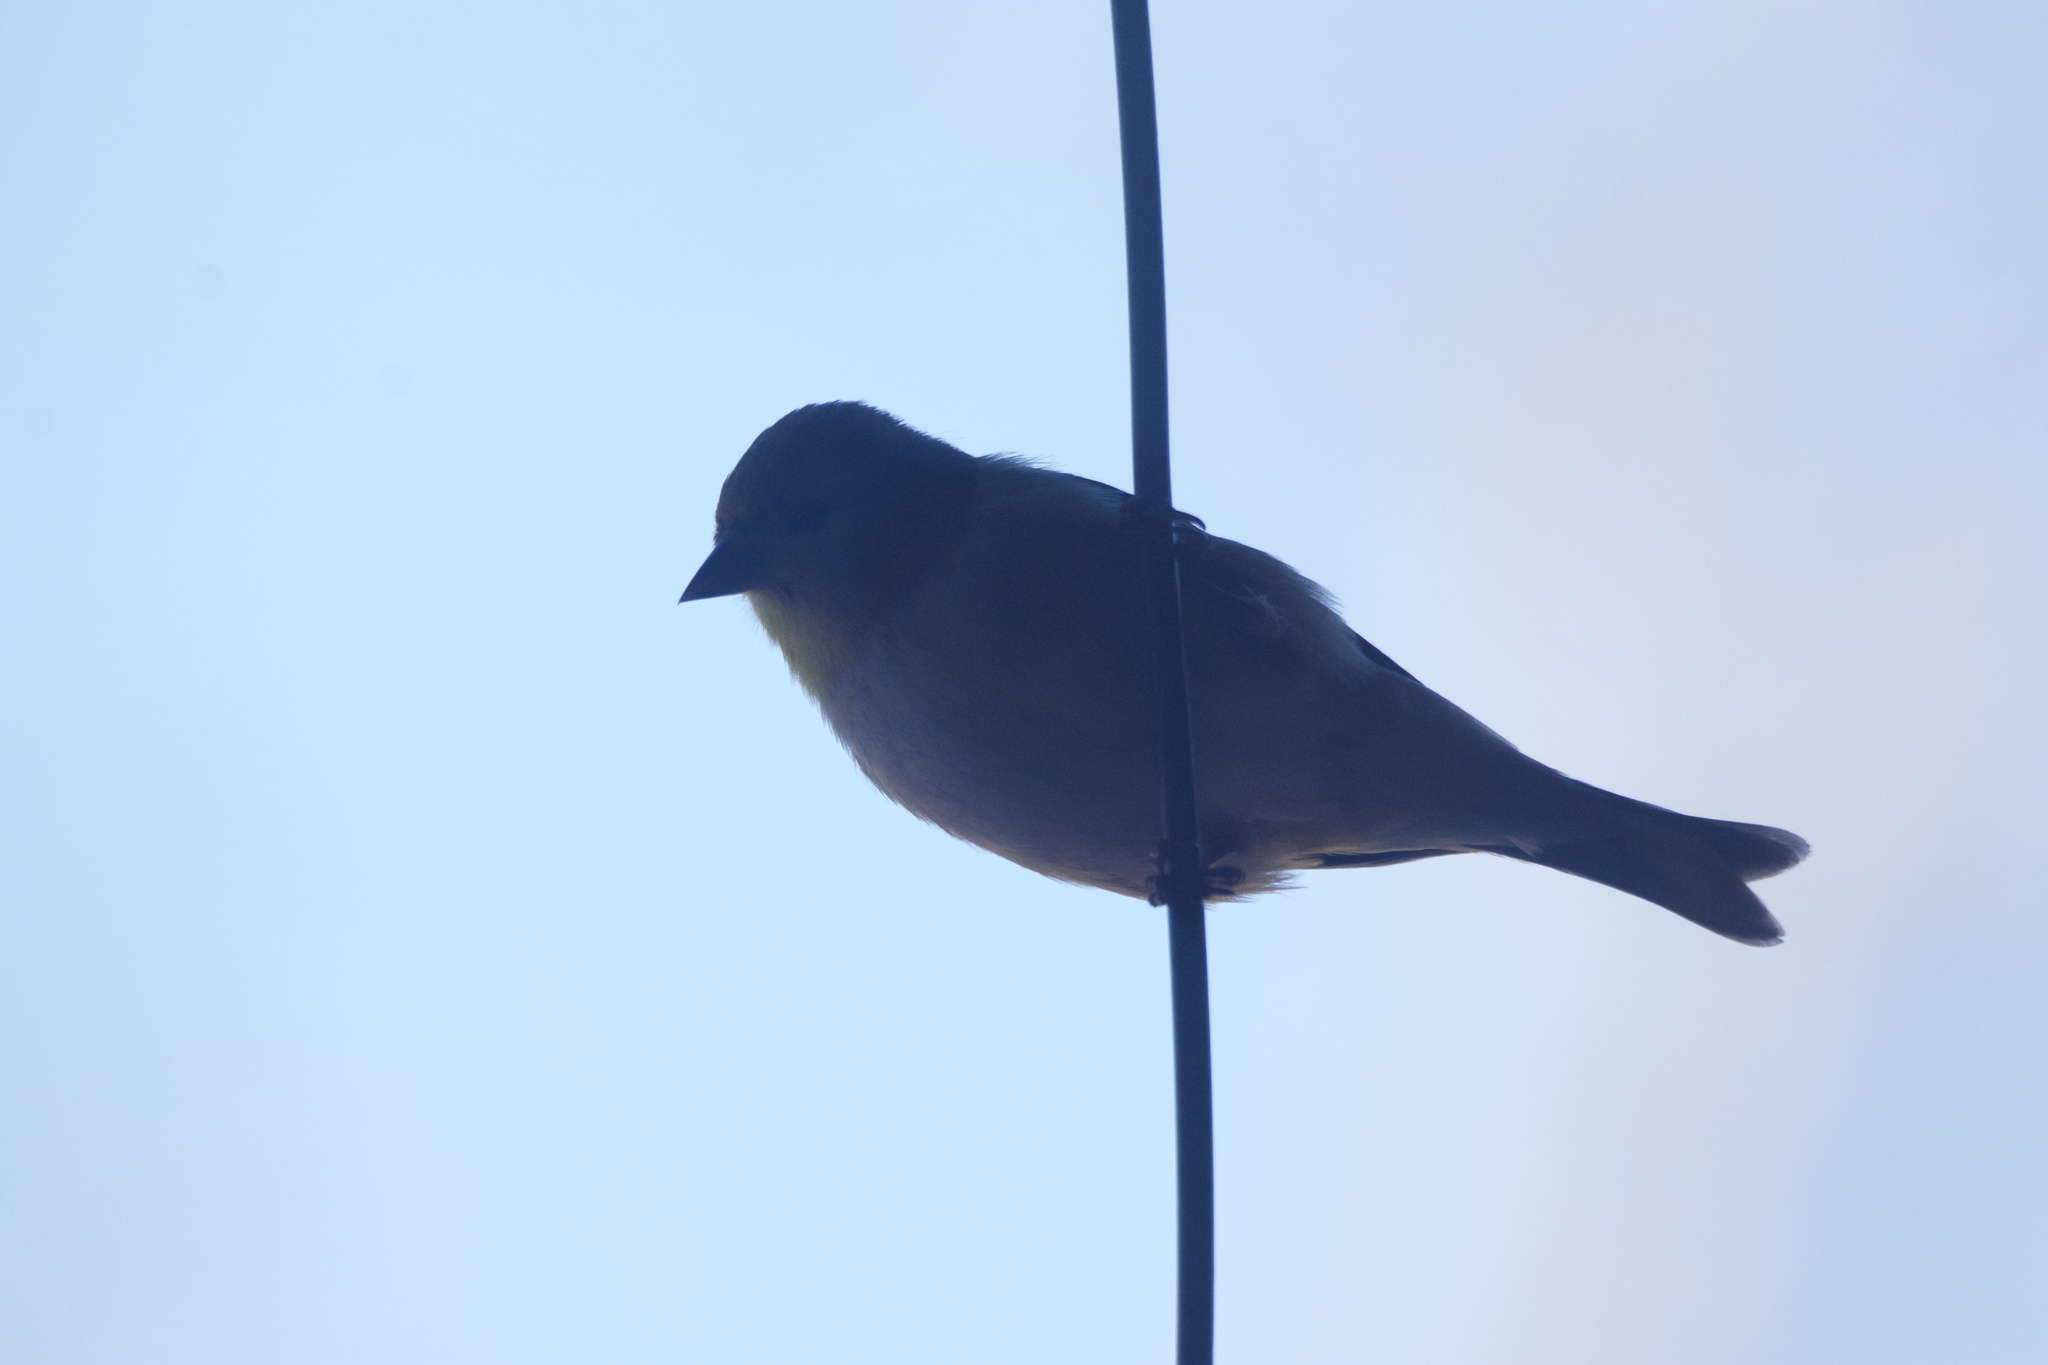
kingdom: Animalia
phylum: Chordata
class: Aves
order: Passeriformes
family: Fringillidae
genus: Spinus
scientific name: Spinus tristis
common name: American goldfinch
